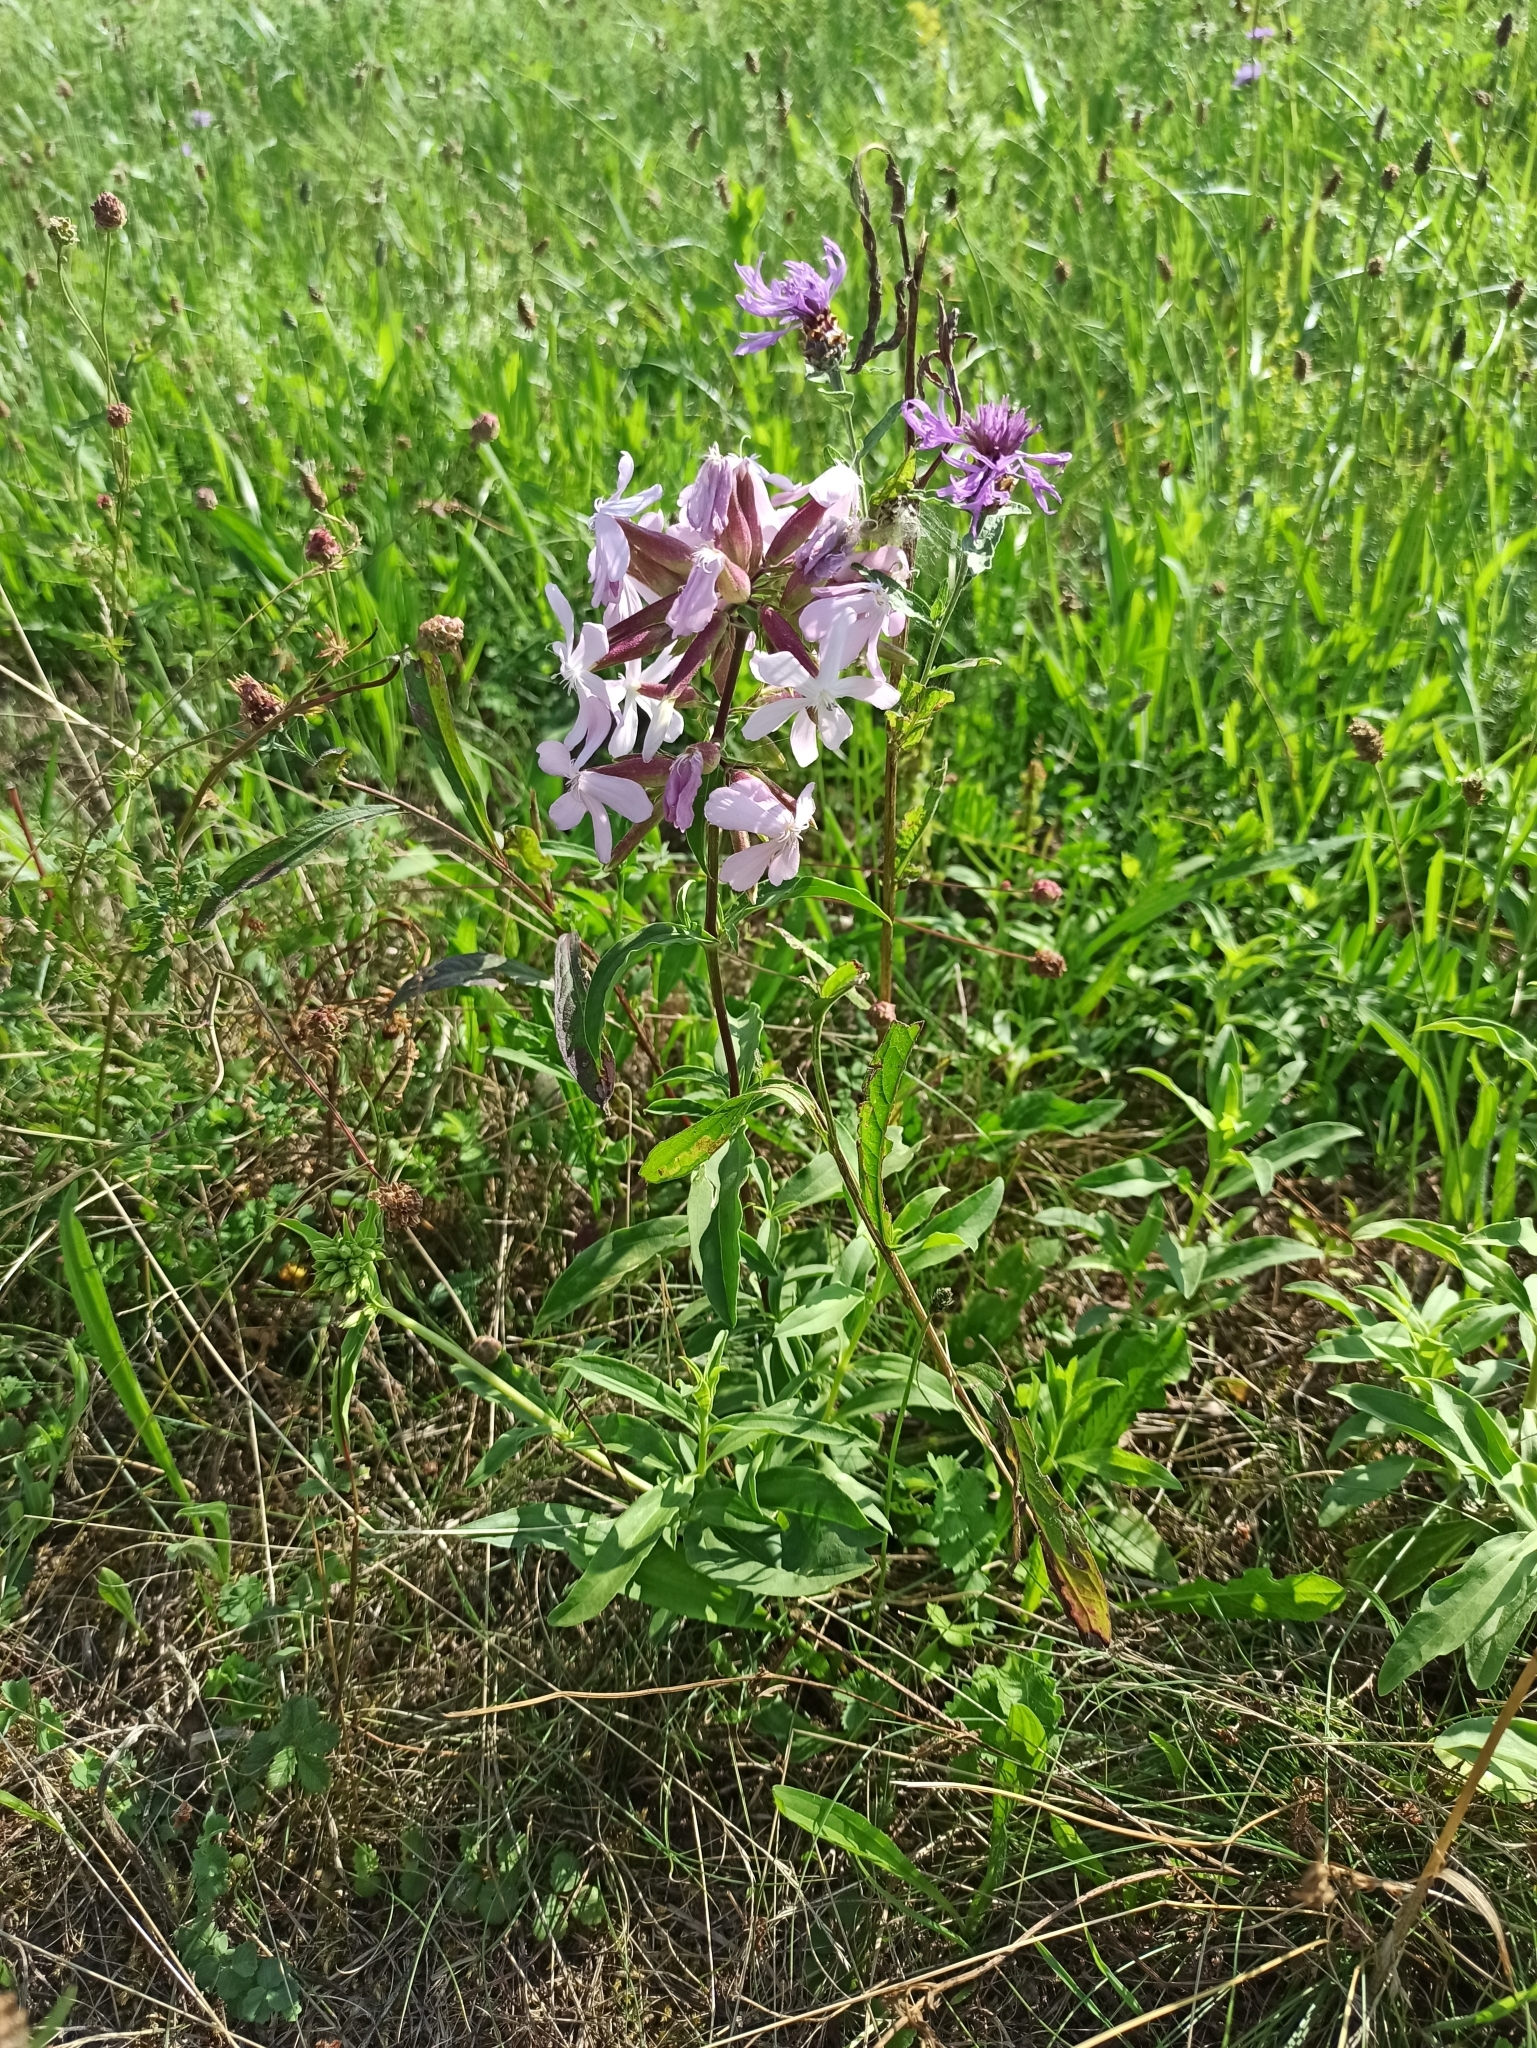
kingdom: Plantae
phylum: Tracheophyta
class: Magnoliopsida
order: Caryophyllales
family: Caryophyllaceae
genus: Saponaria
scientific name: Saponaria officinalis
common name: Soapwort
